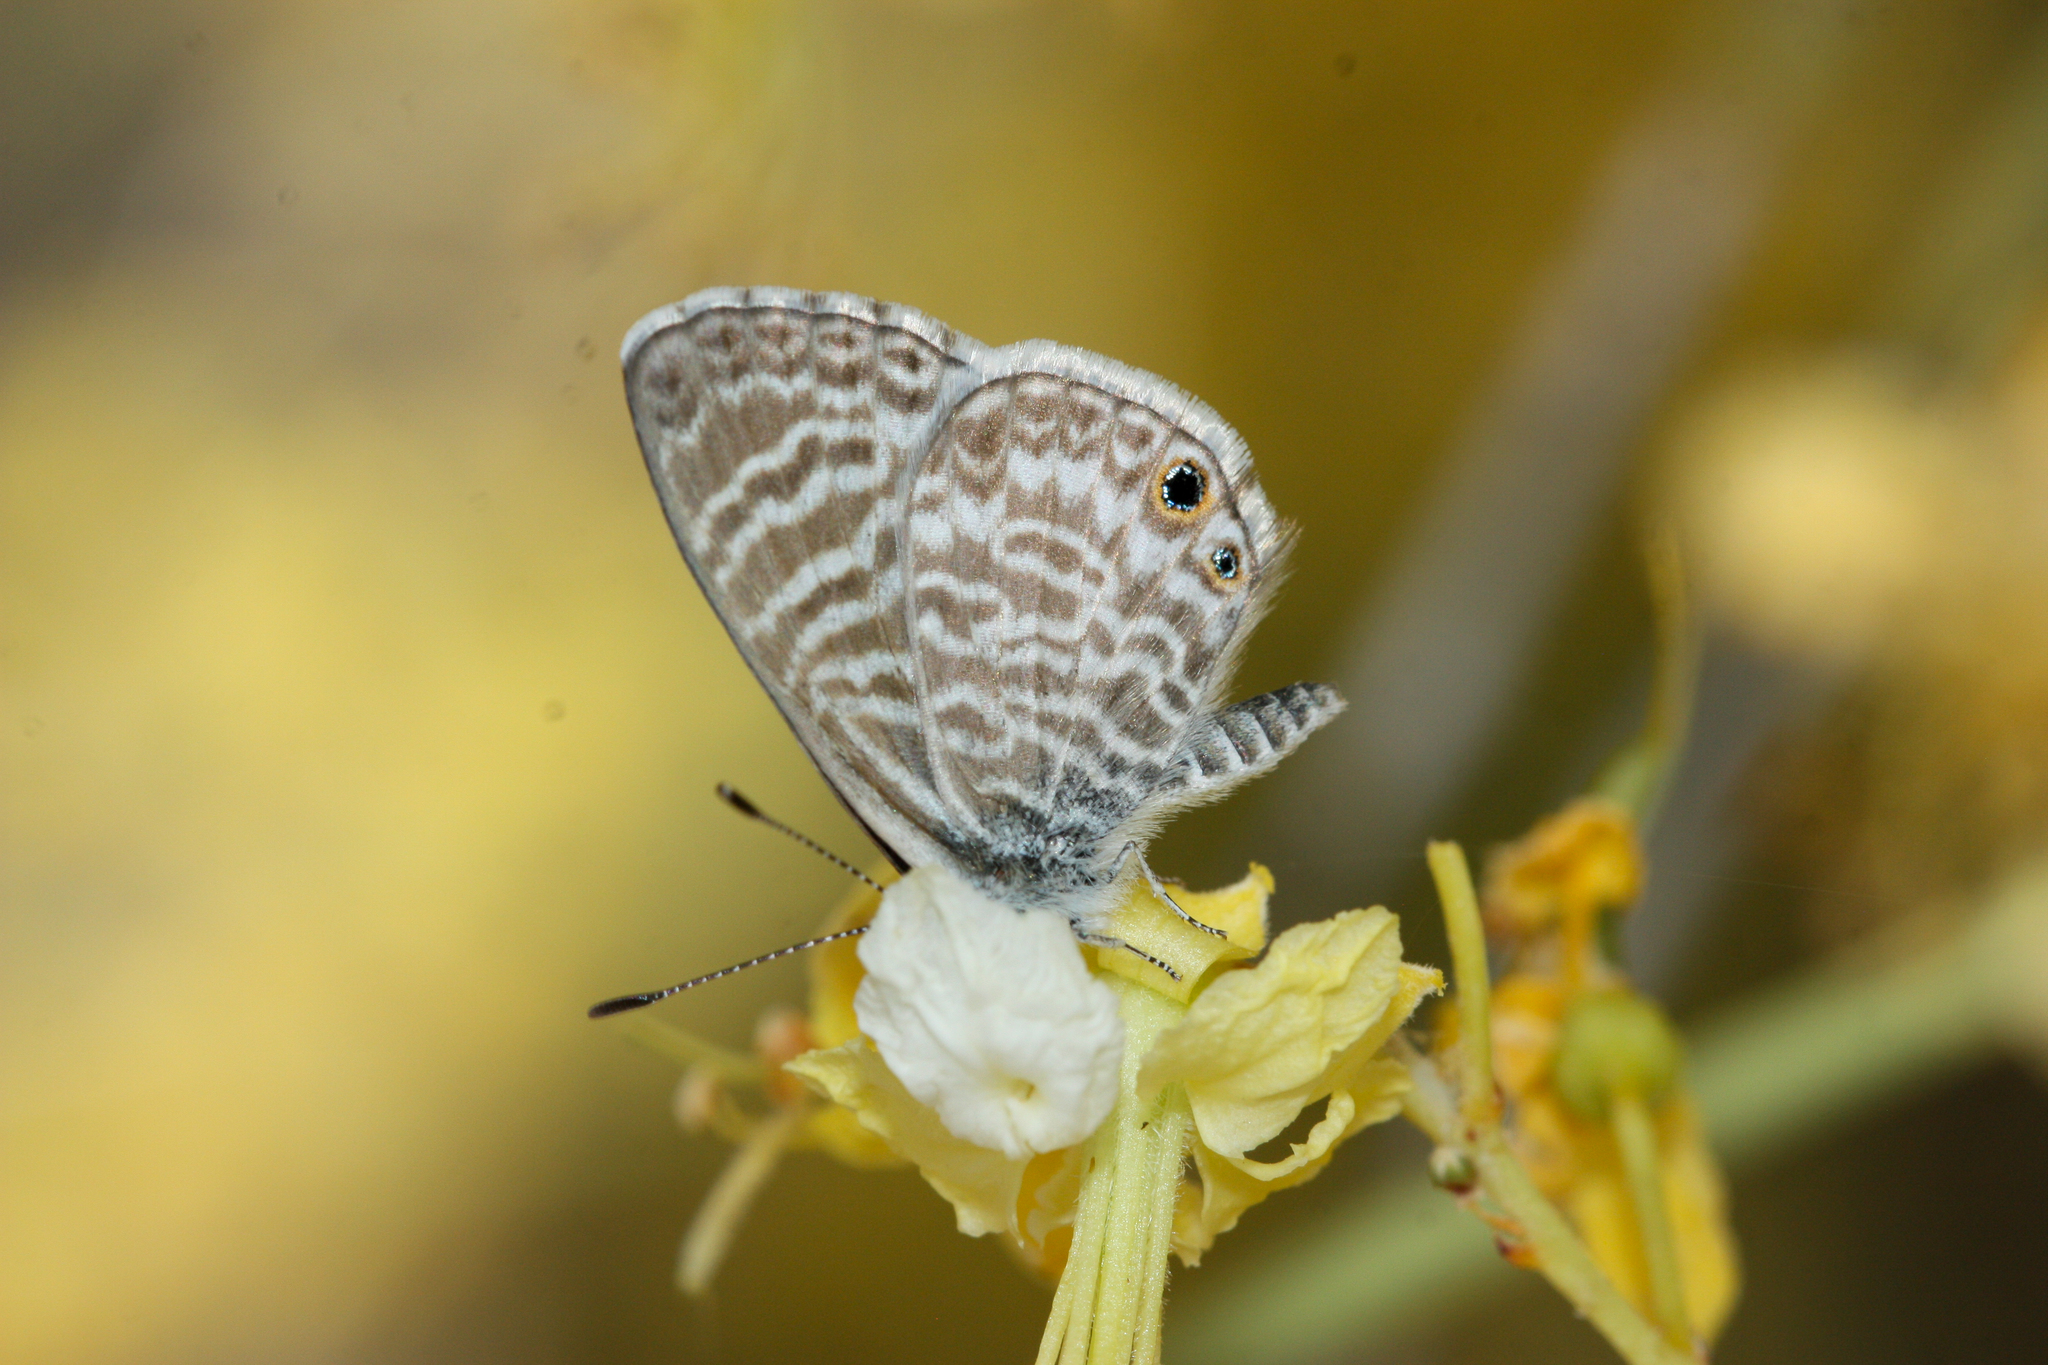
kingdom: Animalia
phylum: Arthropoda
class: Insecta
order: Lepidoptera
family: Lycaenidae
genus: Leptotes
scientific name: Leptotes marina
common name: Marine blue
